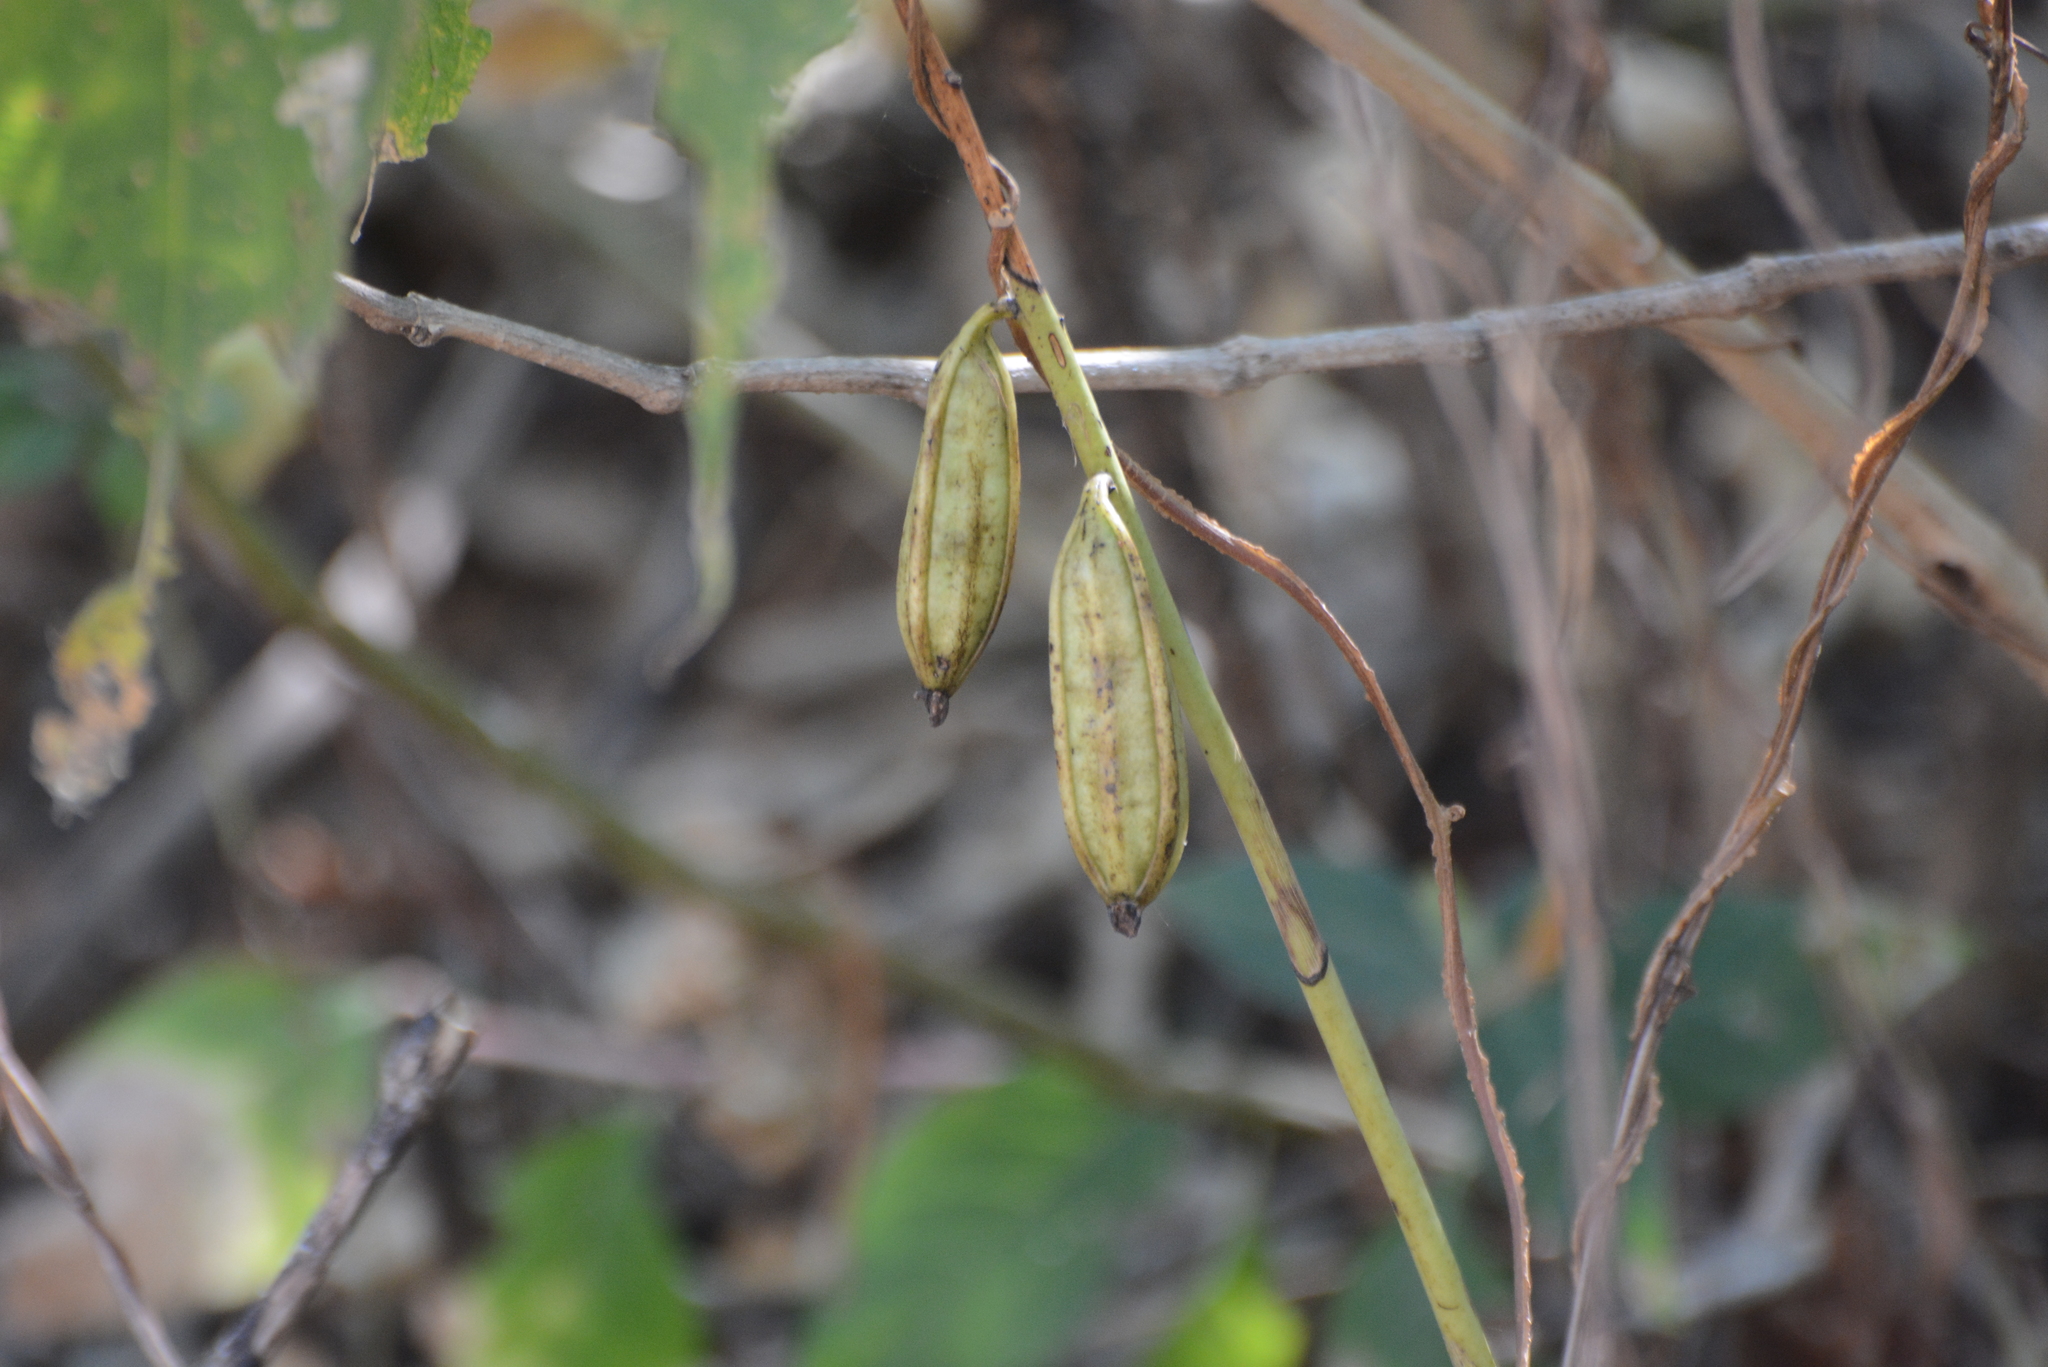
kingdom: Plantae
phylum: Tracheophyta
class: Liliopsida
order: Asparagales
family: Orchidaceae
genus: Eulophia
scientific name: Eulophia herbacea
